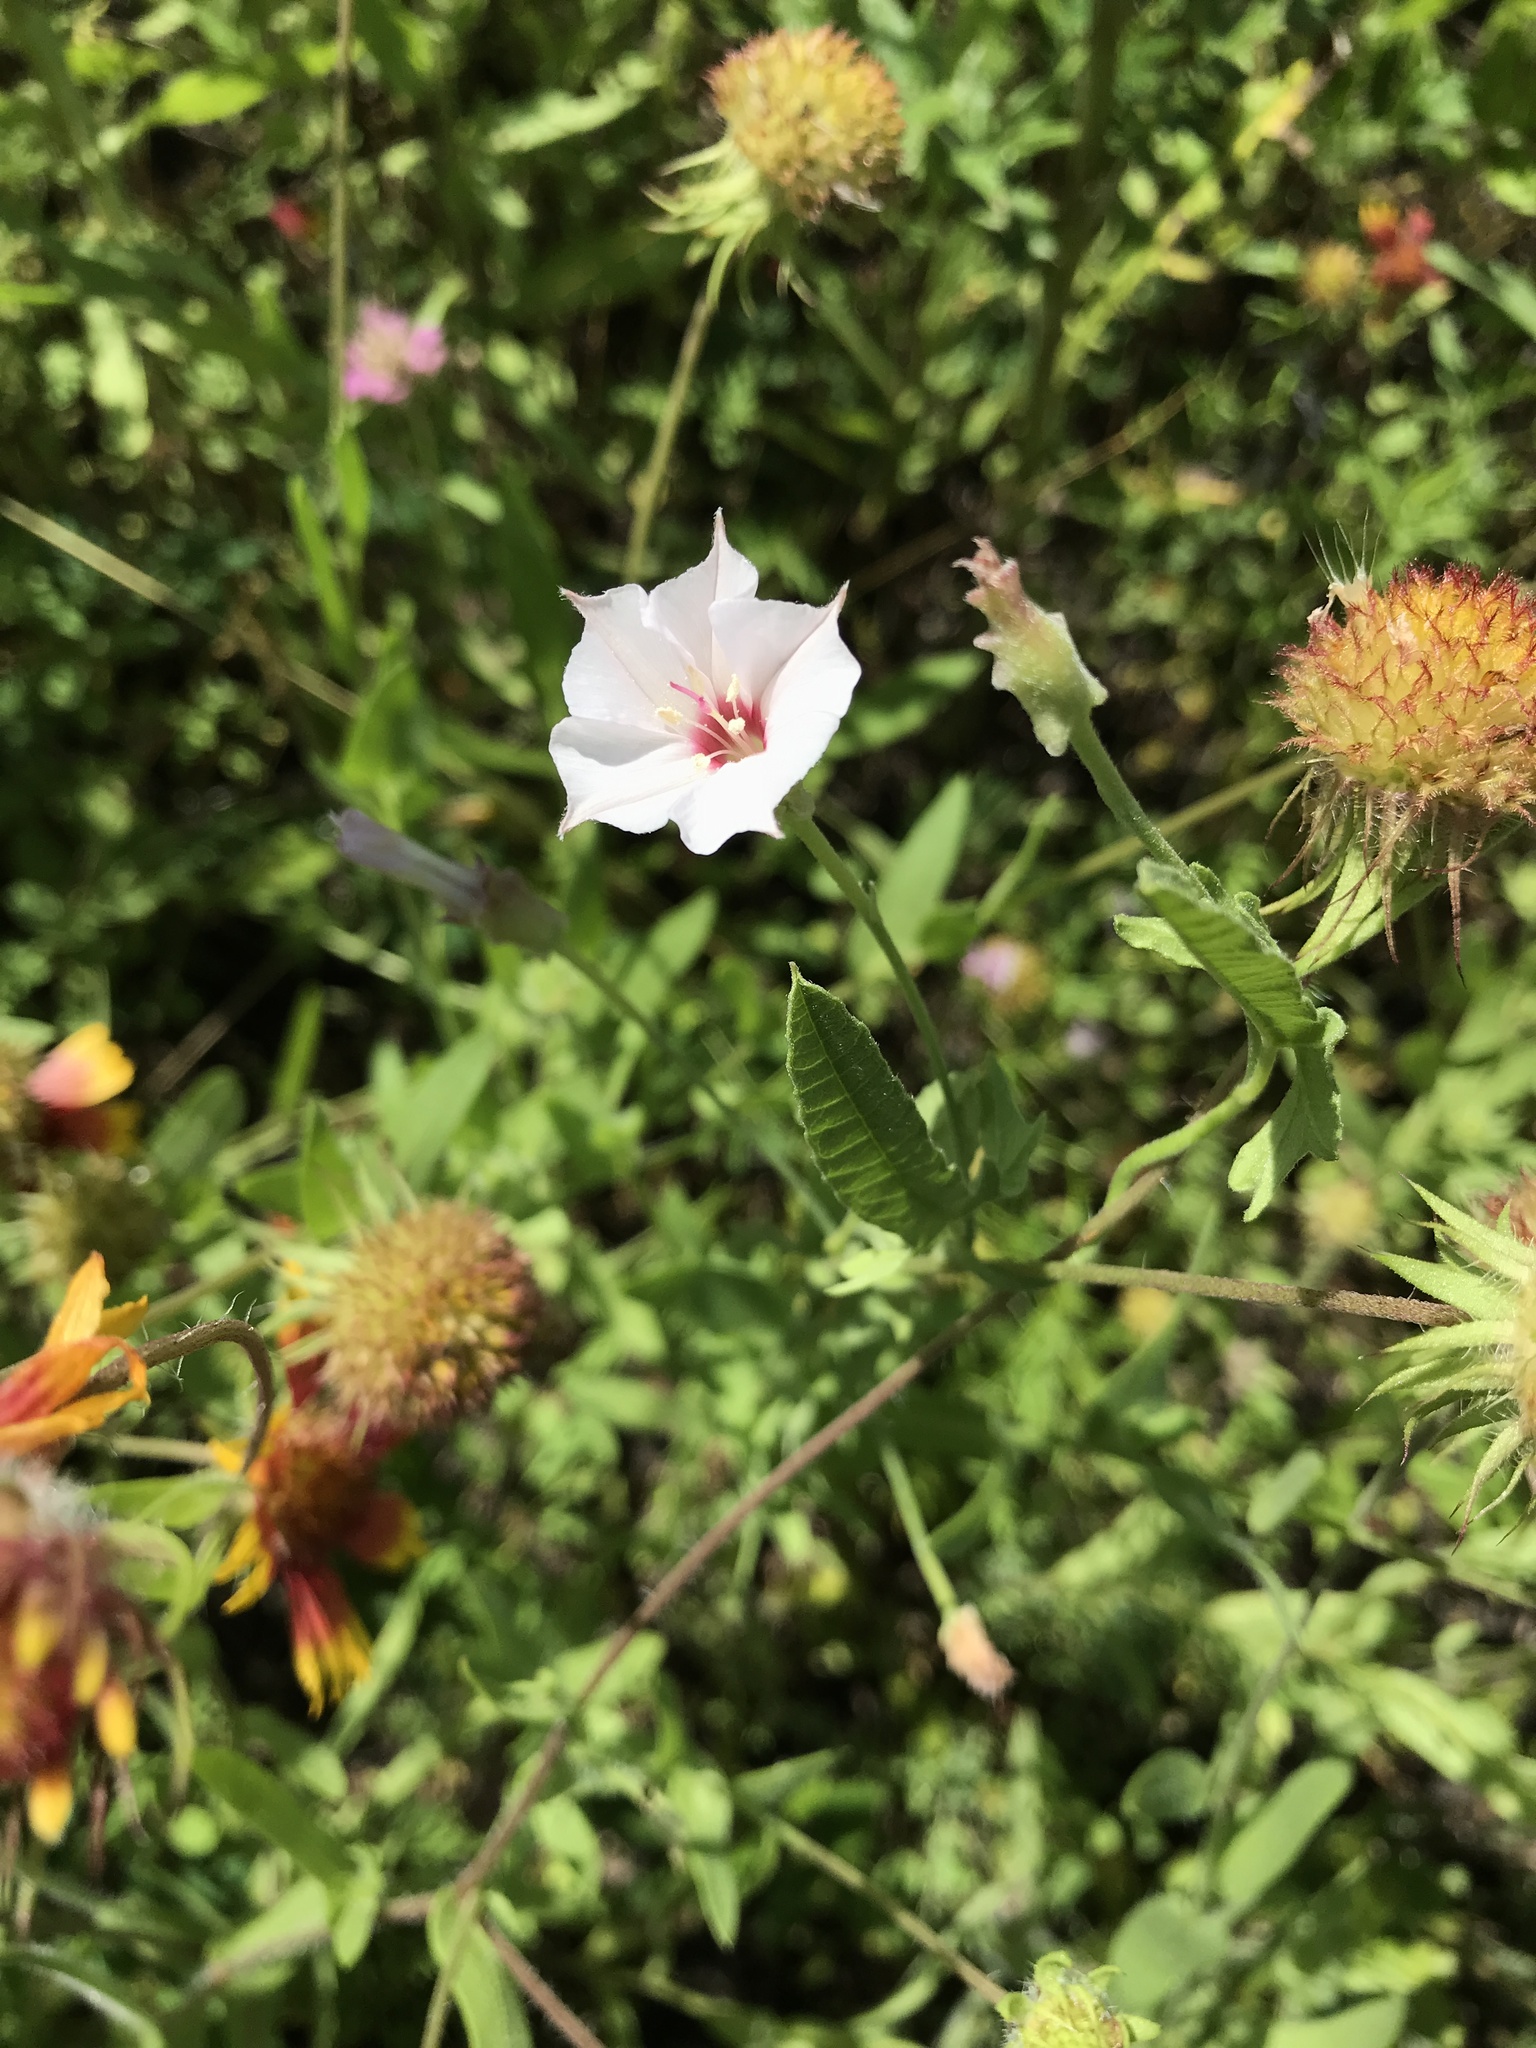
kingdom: Plantae
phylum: Tracheophyta
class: Magnoliopsida
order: Solanales
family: Convolvulaceae
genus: Convolvulus
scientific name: Convolvulus equitans
